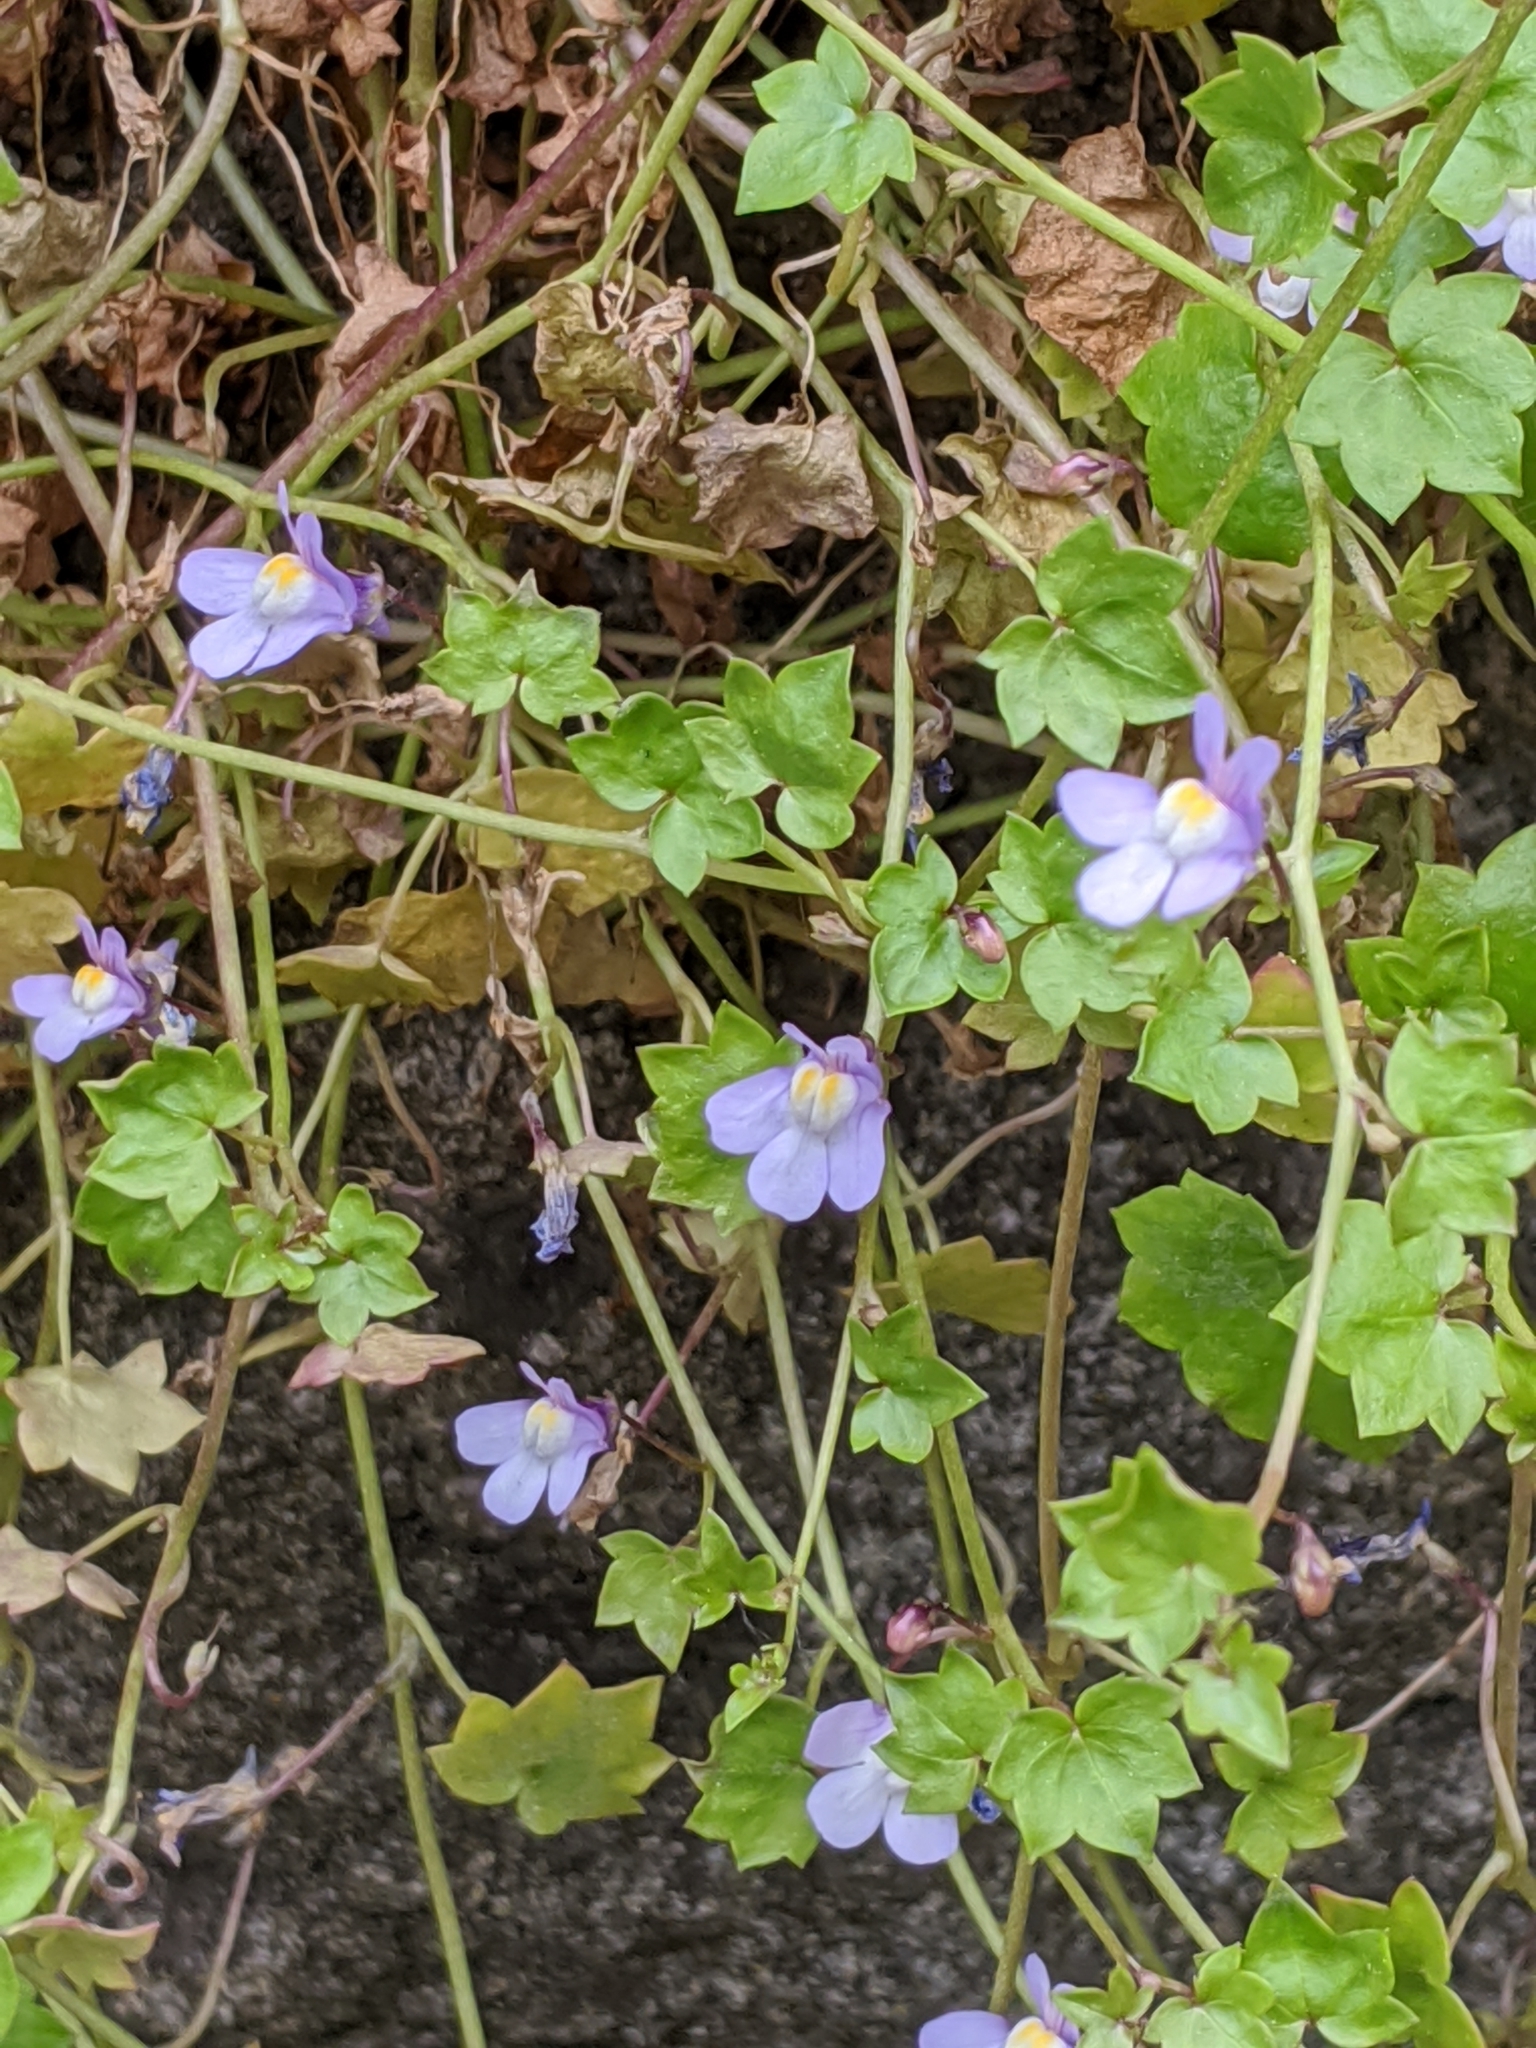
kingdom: Plantae
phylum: Tracheophyta
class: Magnoliopsida
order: Lamiales
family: Plantaginaceae
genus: Cymbalaria
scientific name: Cymbalaria muralis
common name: Ivy-leaved toadflax
